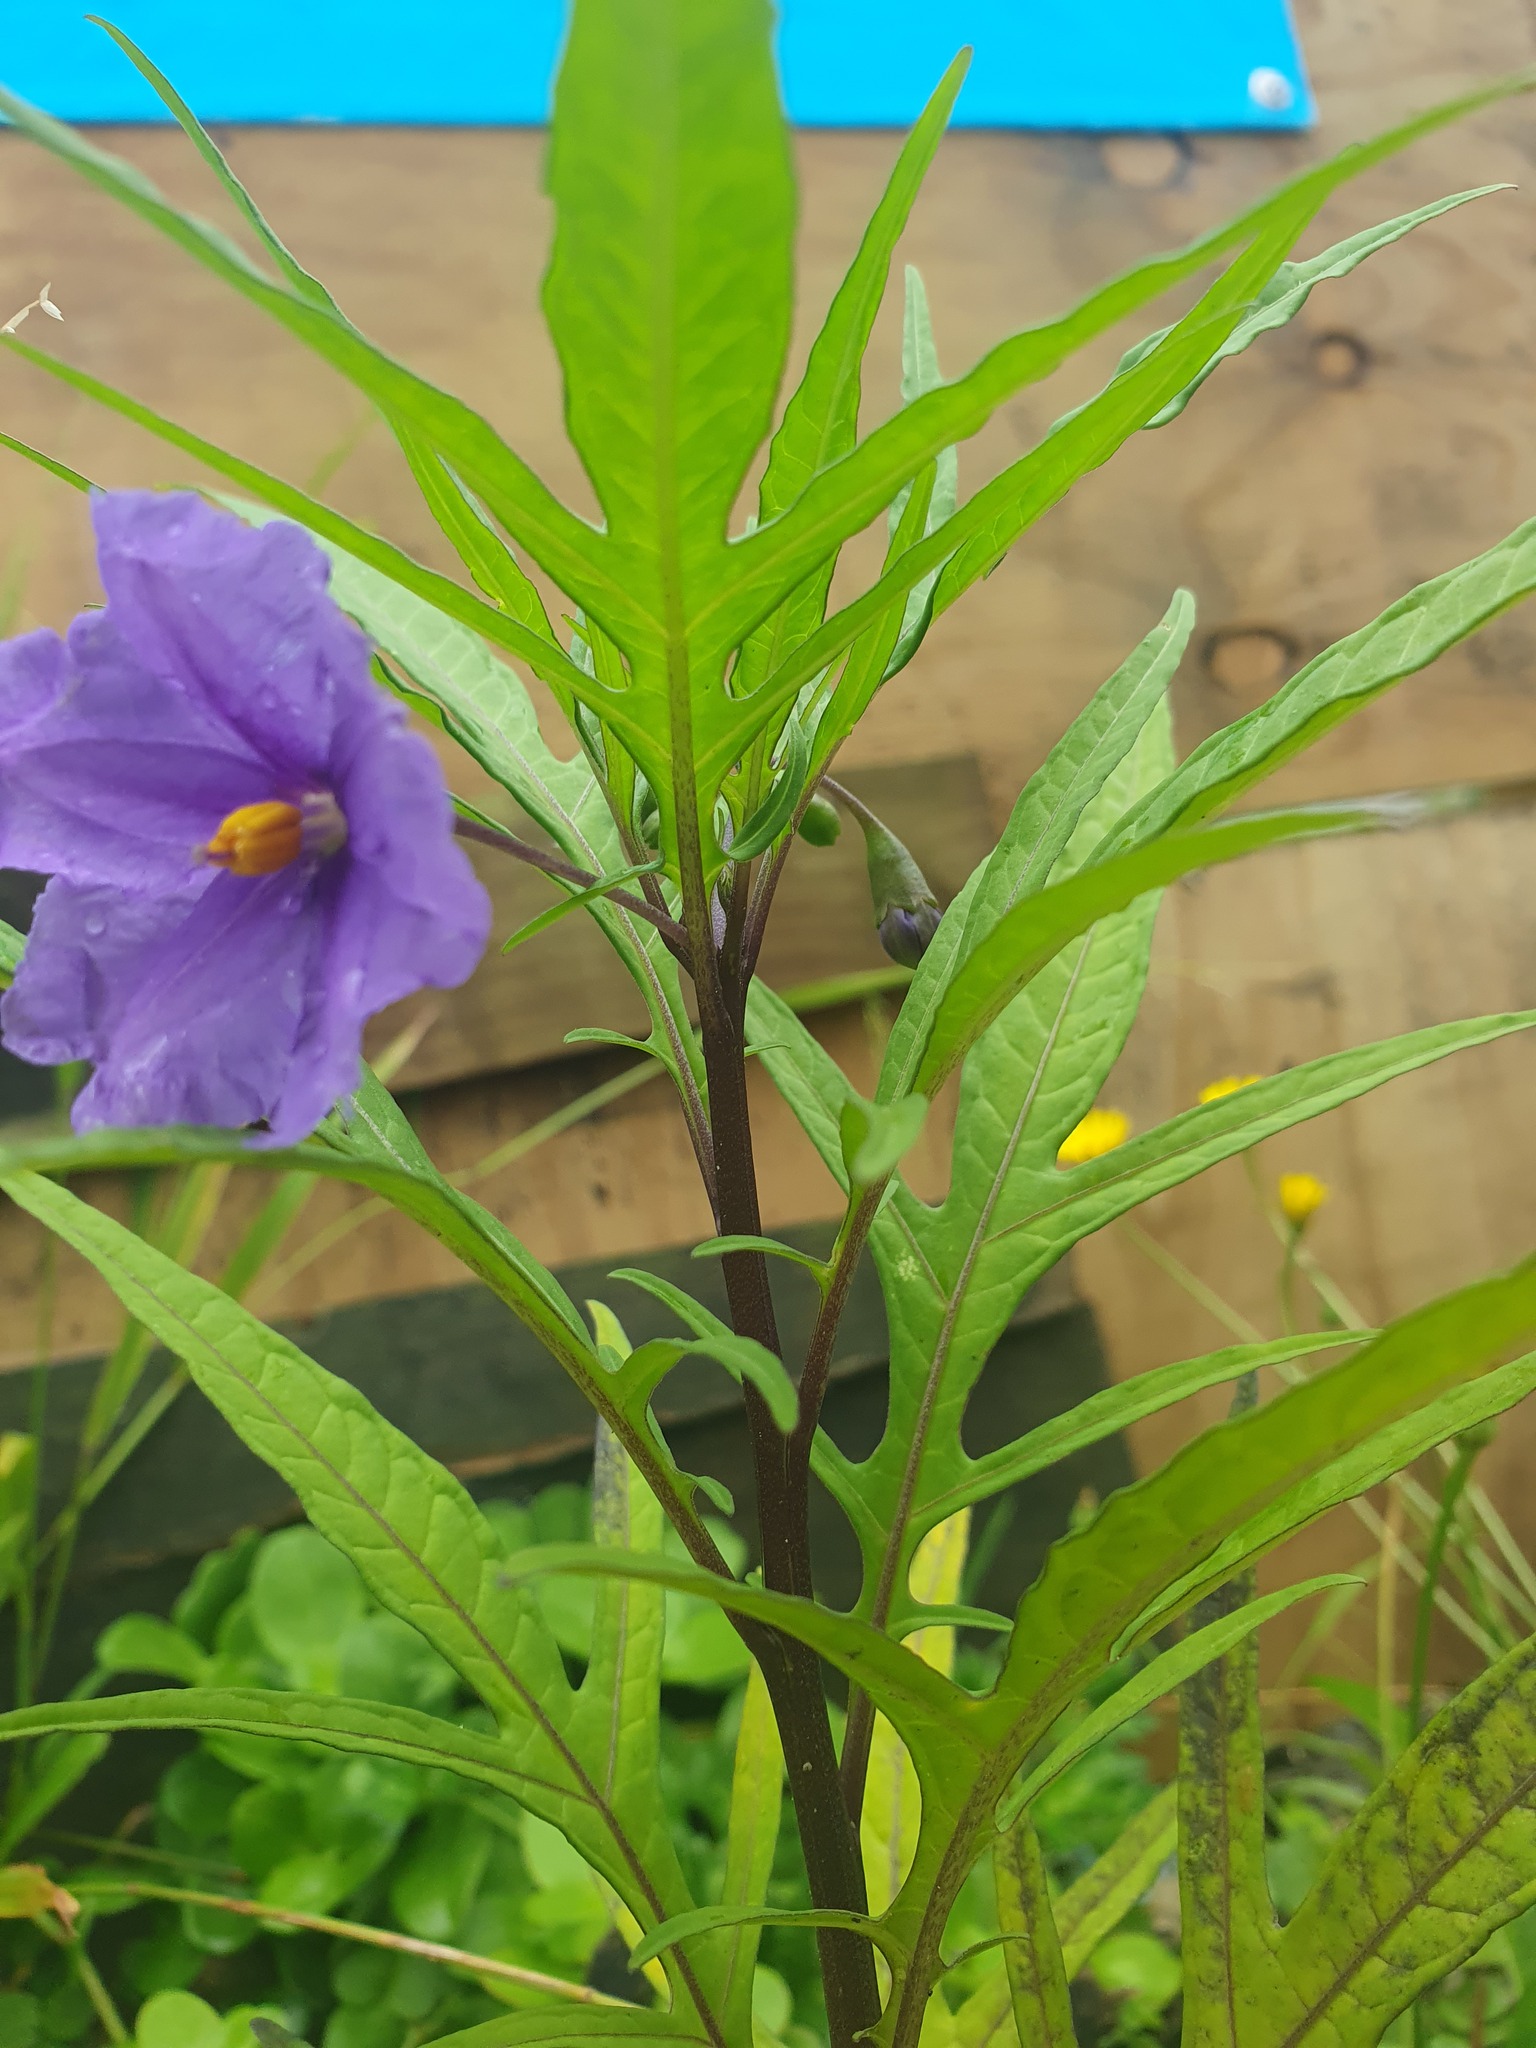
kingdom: Plantae
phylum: Tracheophyta
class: Magnoliopsida
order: Solanales
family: Solanaceae
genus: Solanum
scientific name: Solanum laciniatum
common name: Kangaroo-apple
